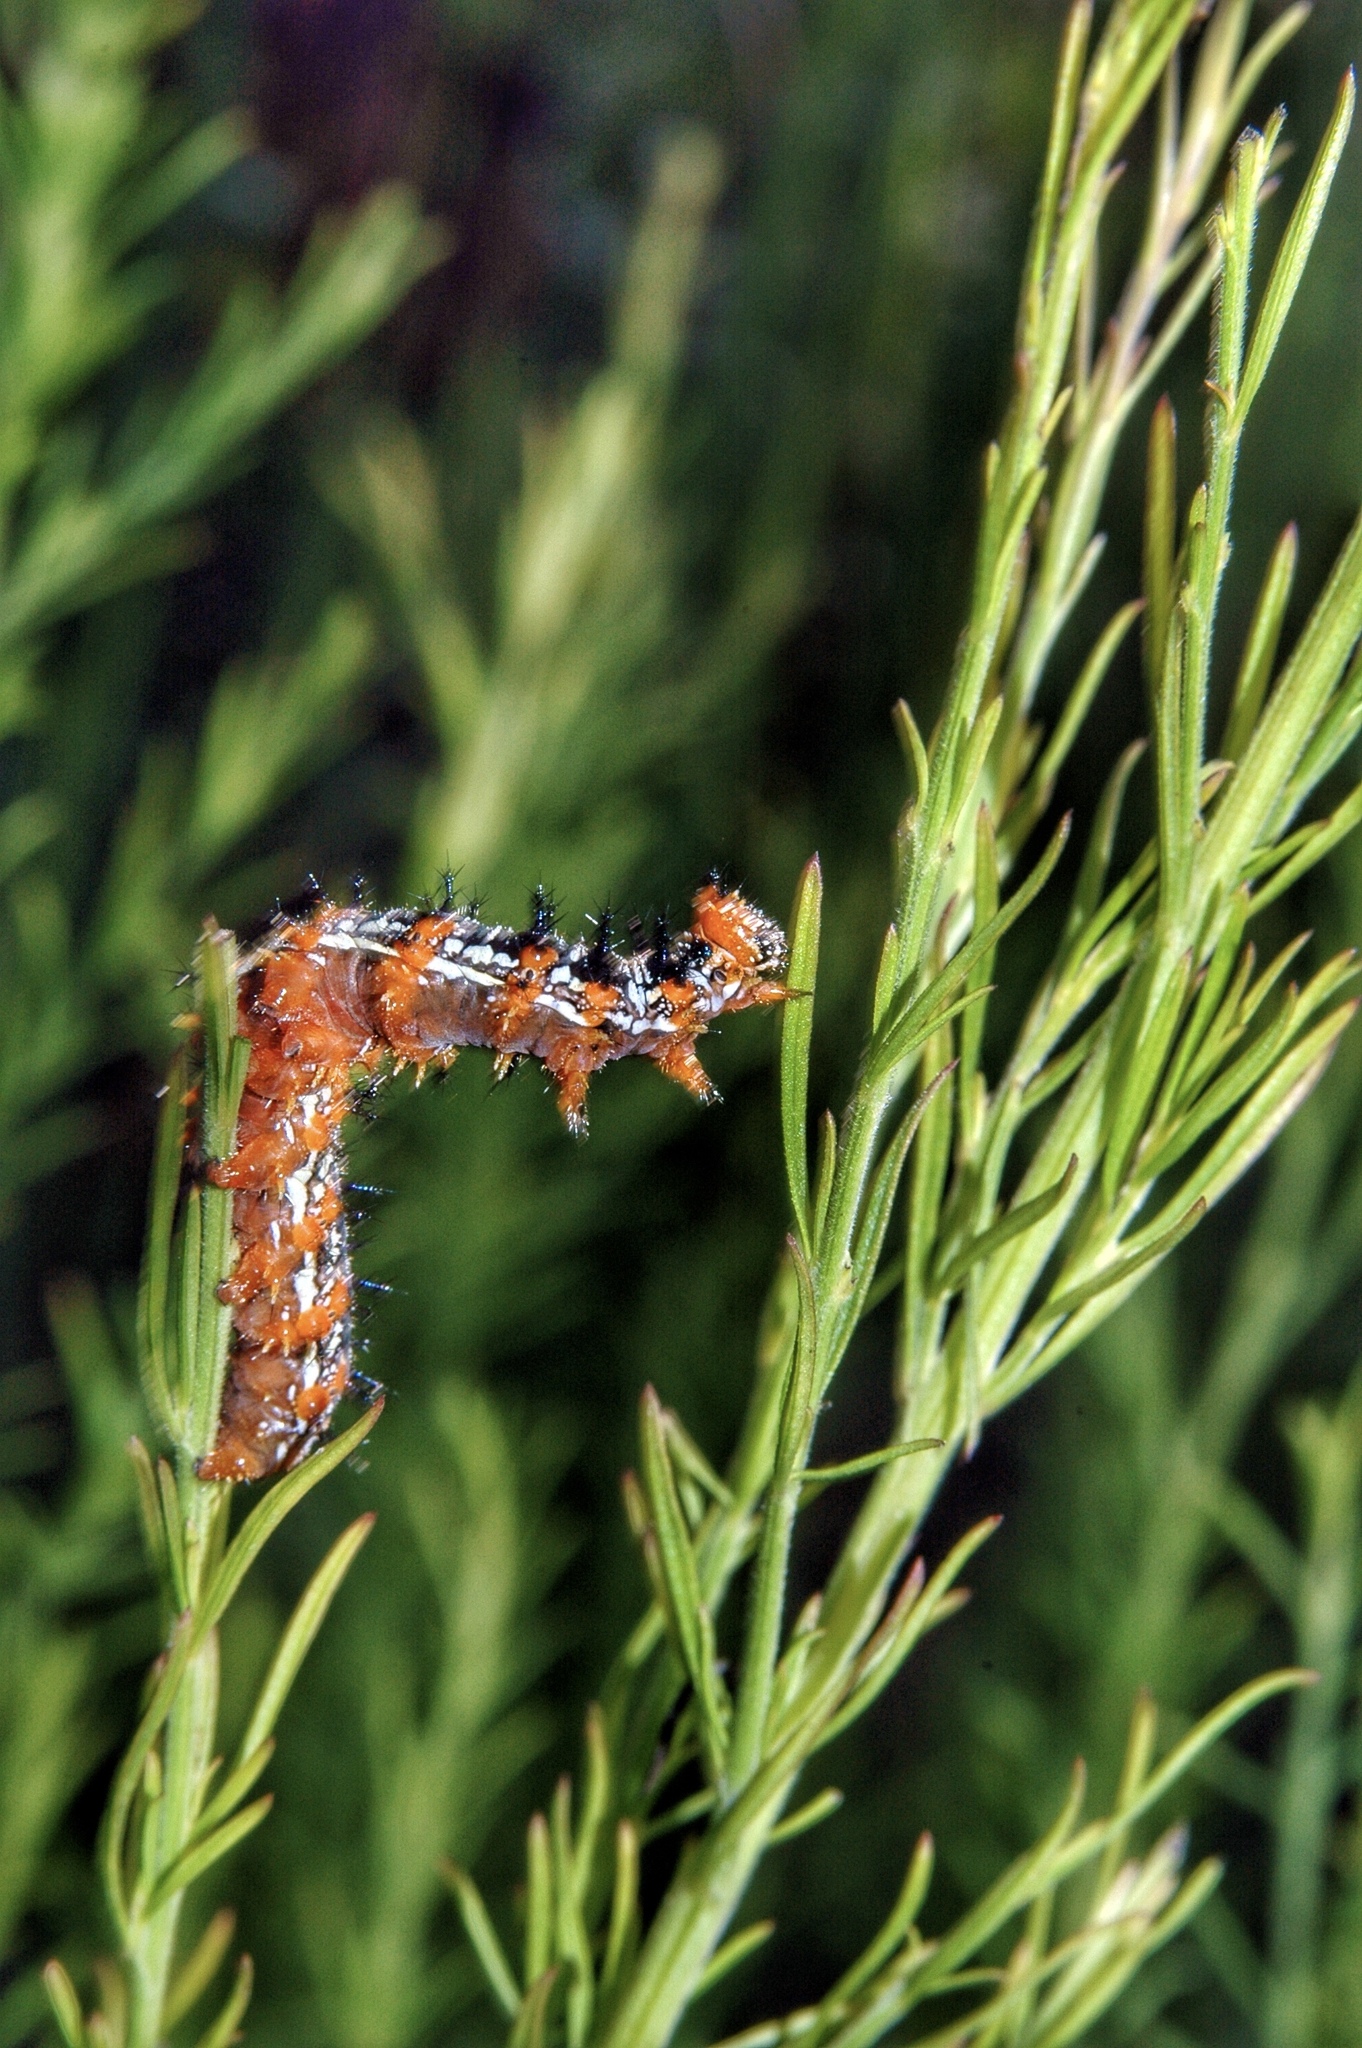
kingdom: Animalia
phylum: Arthropoda
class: Insecta
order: Lepidoptera
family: Nymphalidae
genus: Junonia
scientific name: Junonia coenia
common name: Common buckeye
